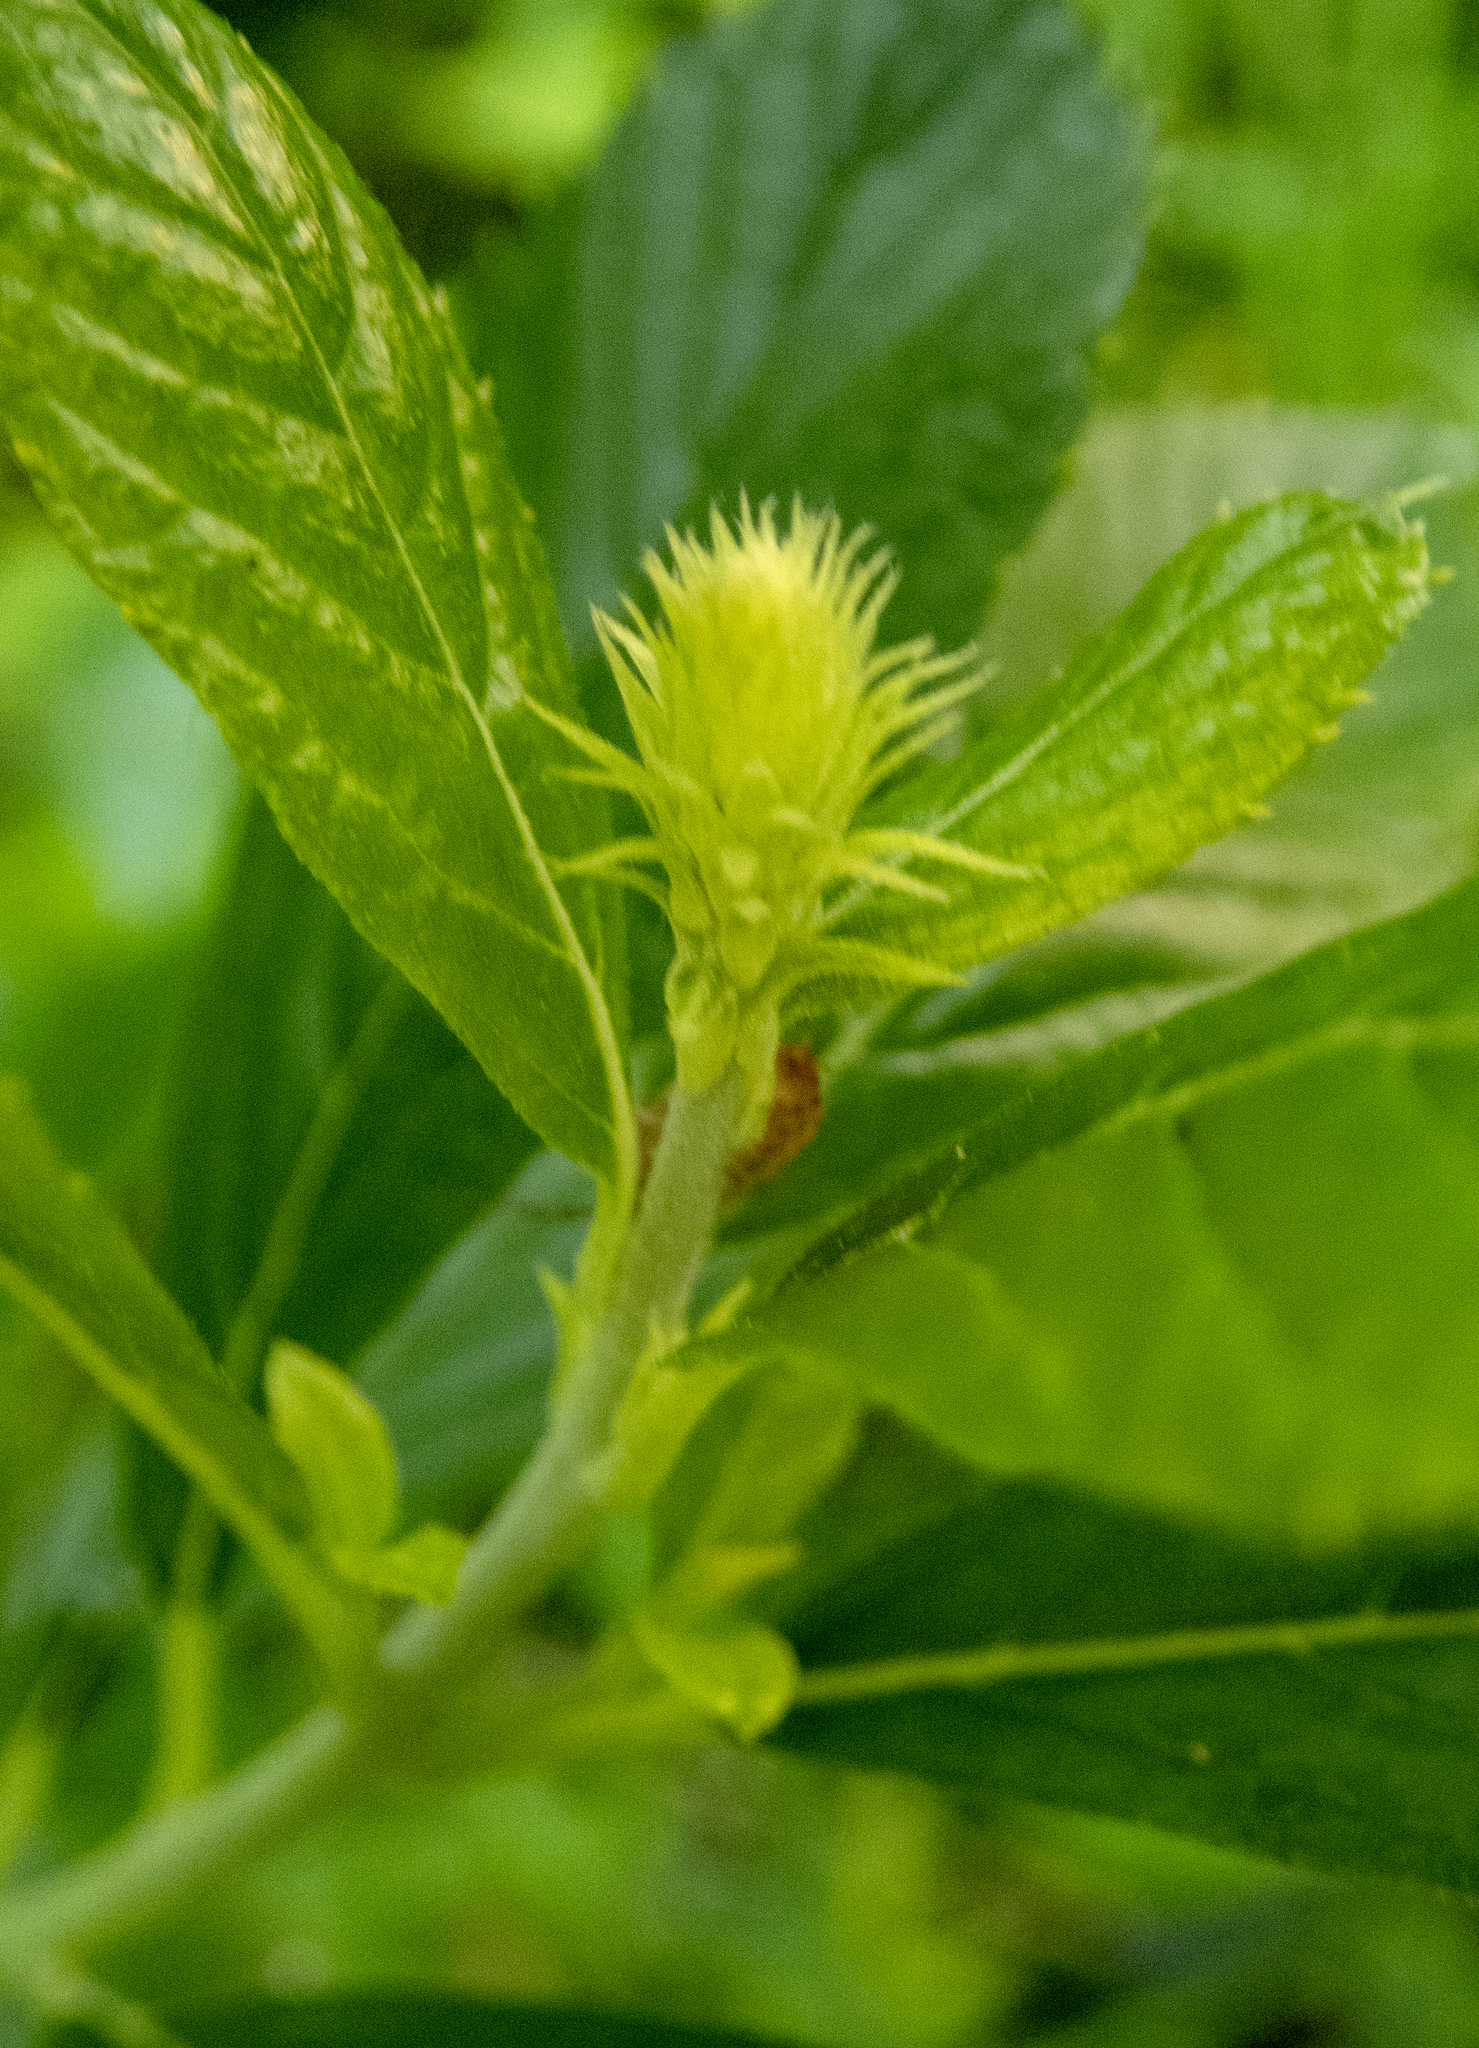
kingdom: Animalia
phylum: Arthropoda
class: Malacostraca
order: Isopoda
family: Philosciidae
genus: Philoscia
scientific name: Philoscia muscorum
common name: Common striped woodlouse
